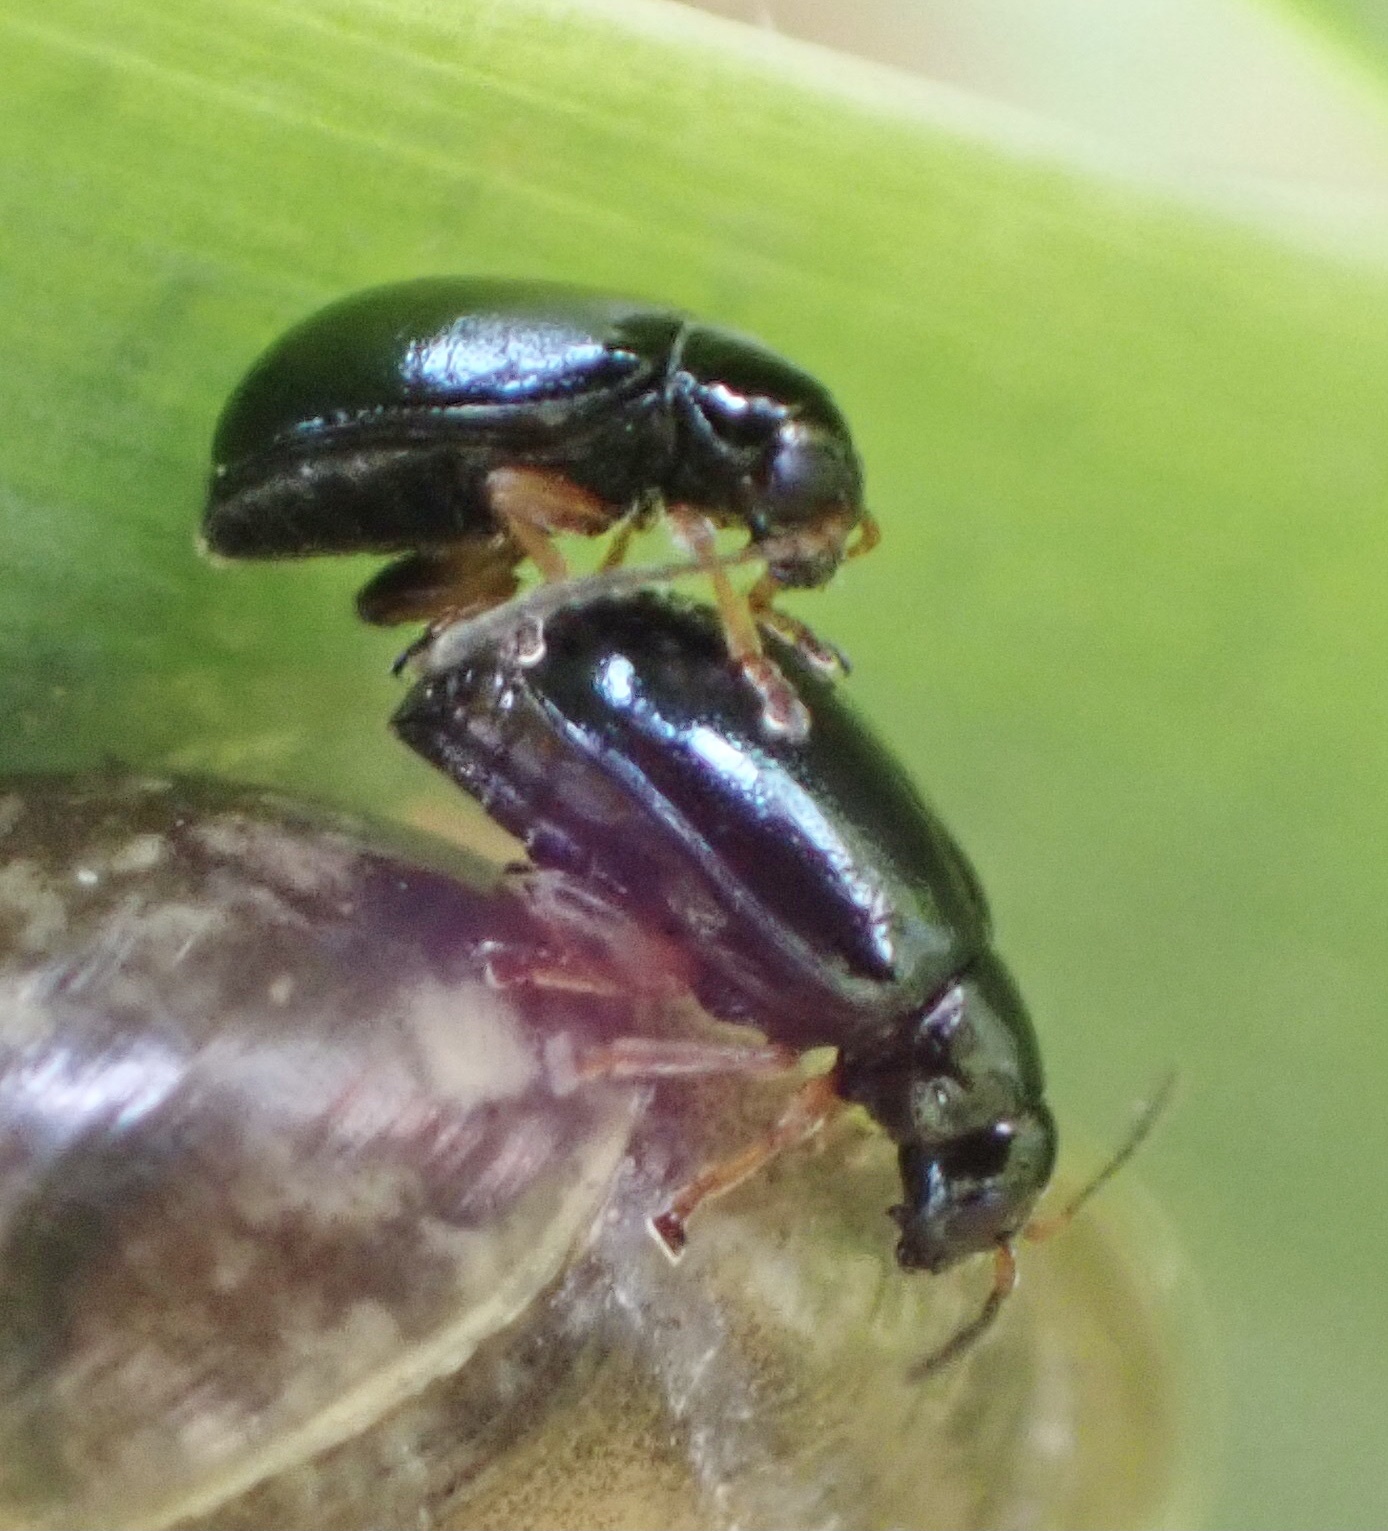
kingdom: Animalia
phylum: Arthropoda
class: Insecta
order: Coleoptera
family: Chrysomelidae
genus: Aphthona
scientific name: Aphthona nonstriata
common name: Iris flea beetle
